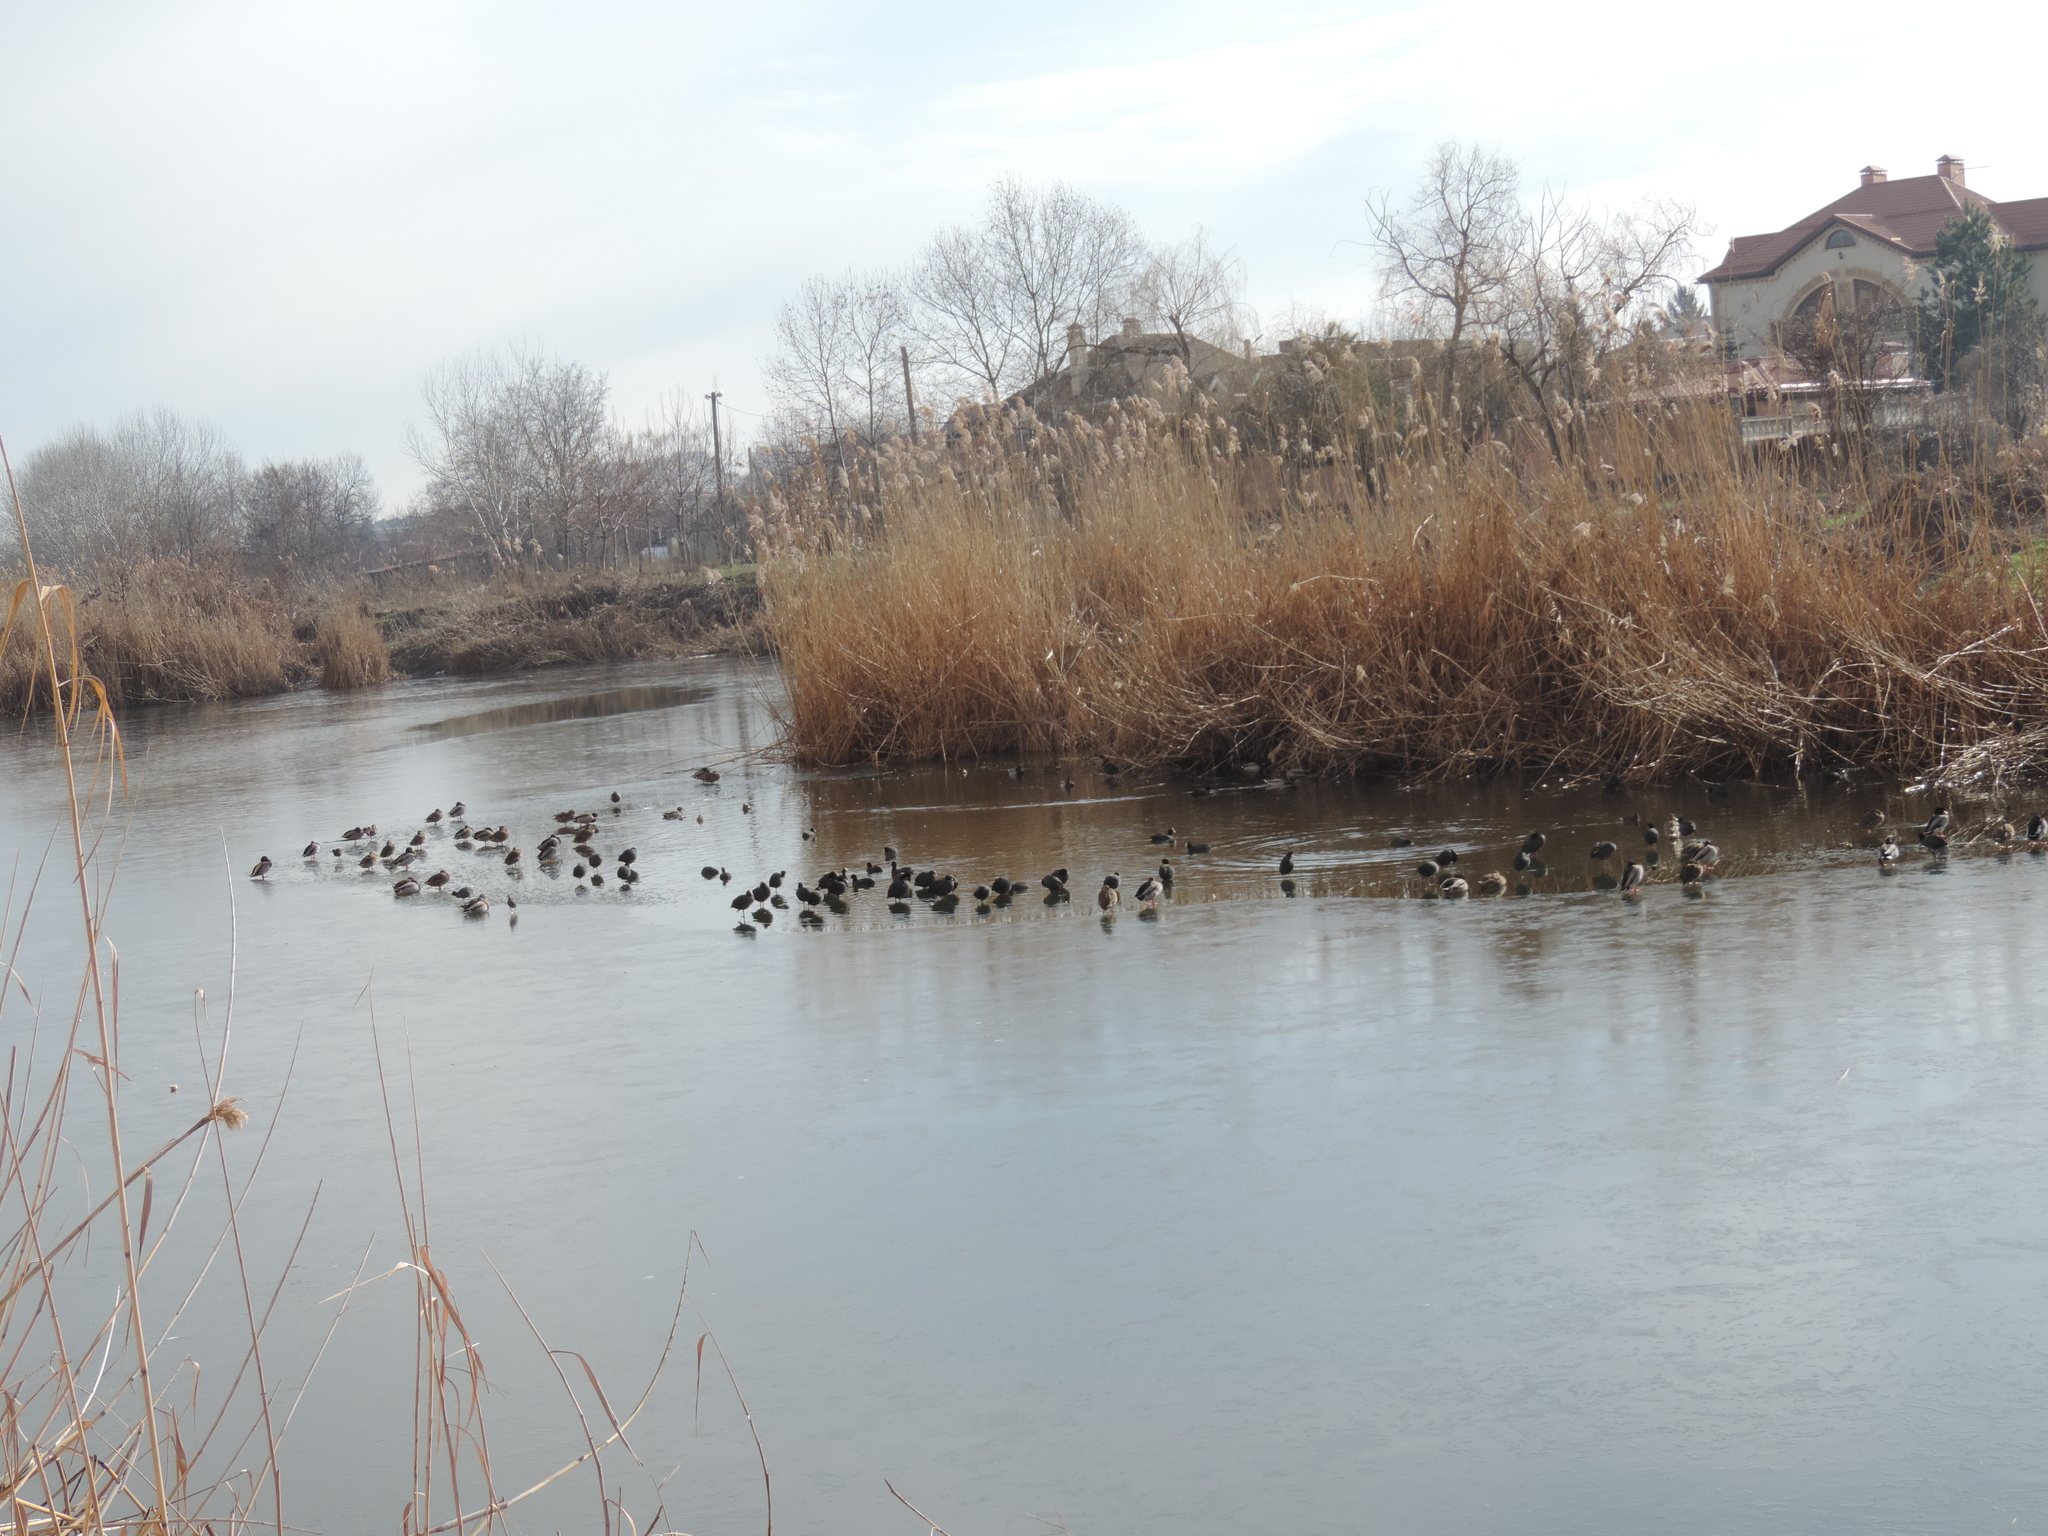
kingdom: Animalia
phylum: Chordata
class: Aves
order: Gruiformes
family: Rallidae
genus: Fulica
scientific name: Fulica atra
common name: Eurasian coot
